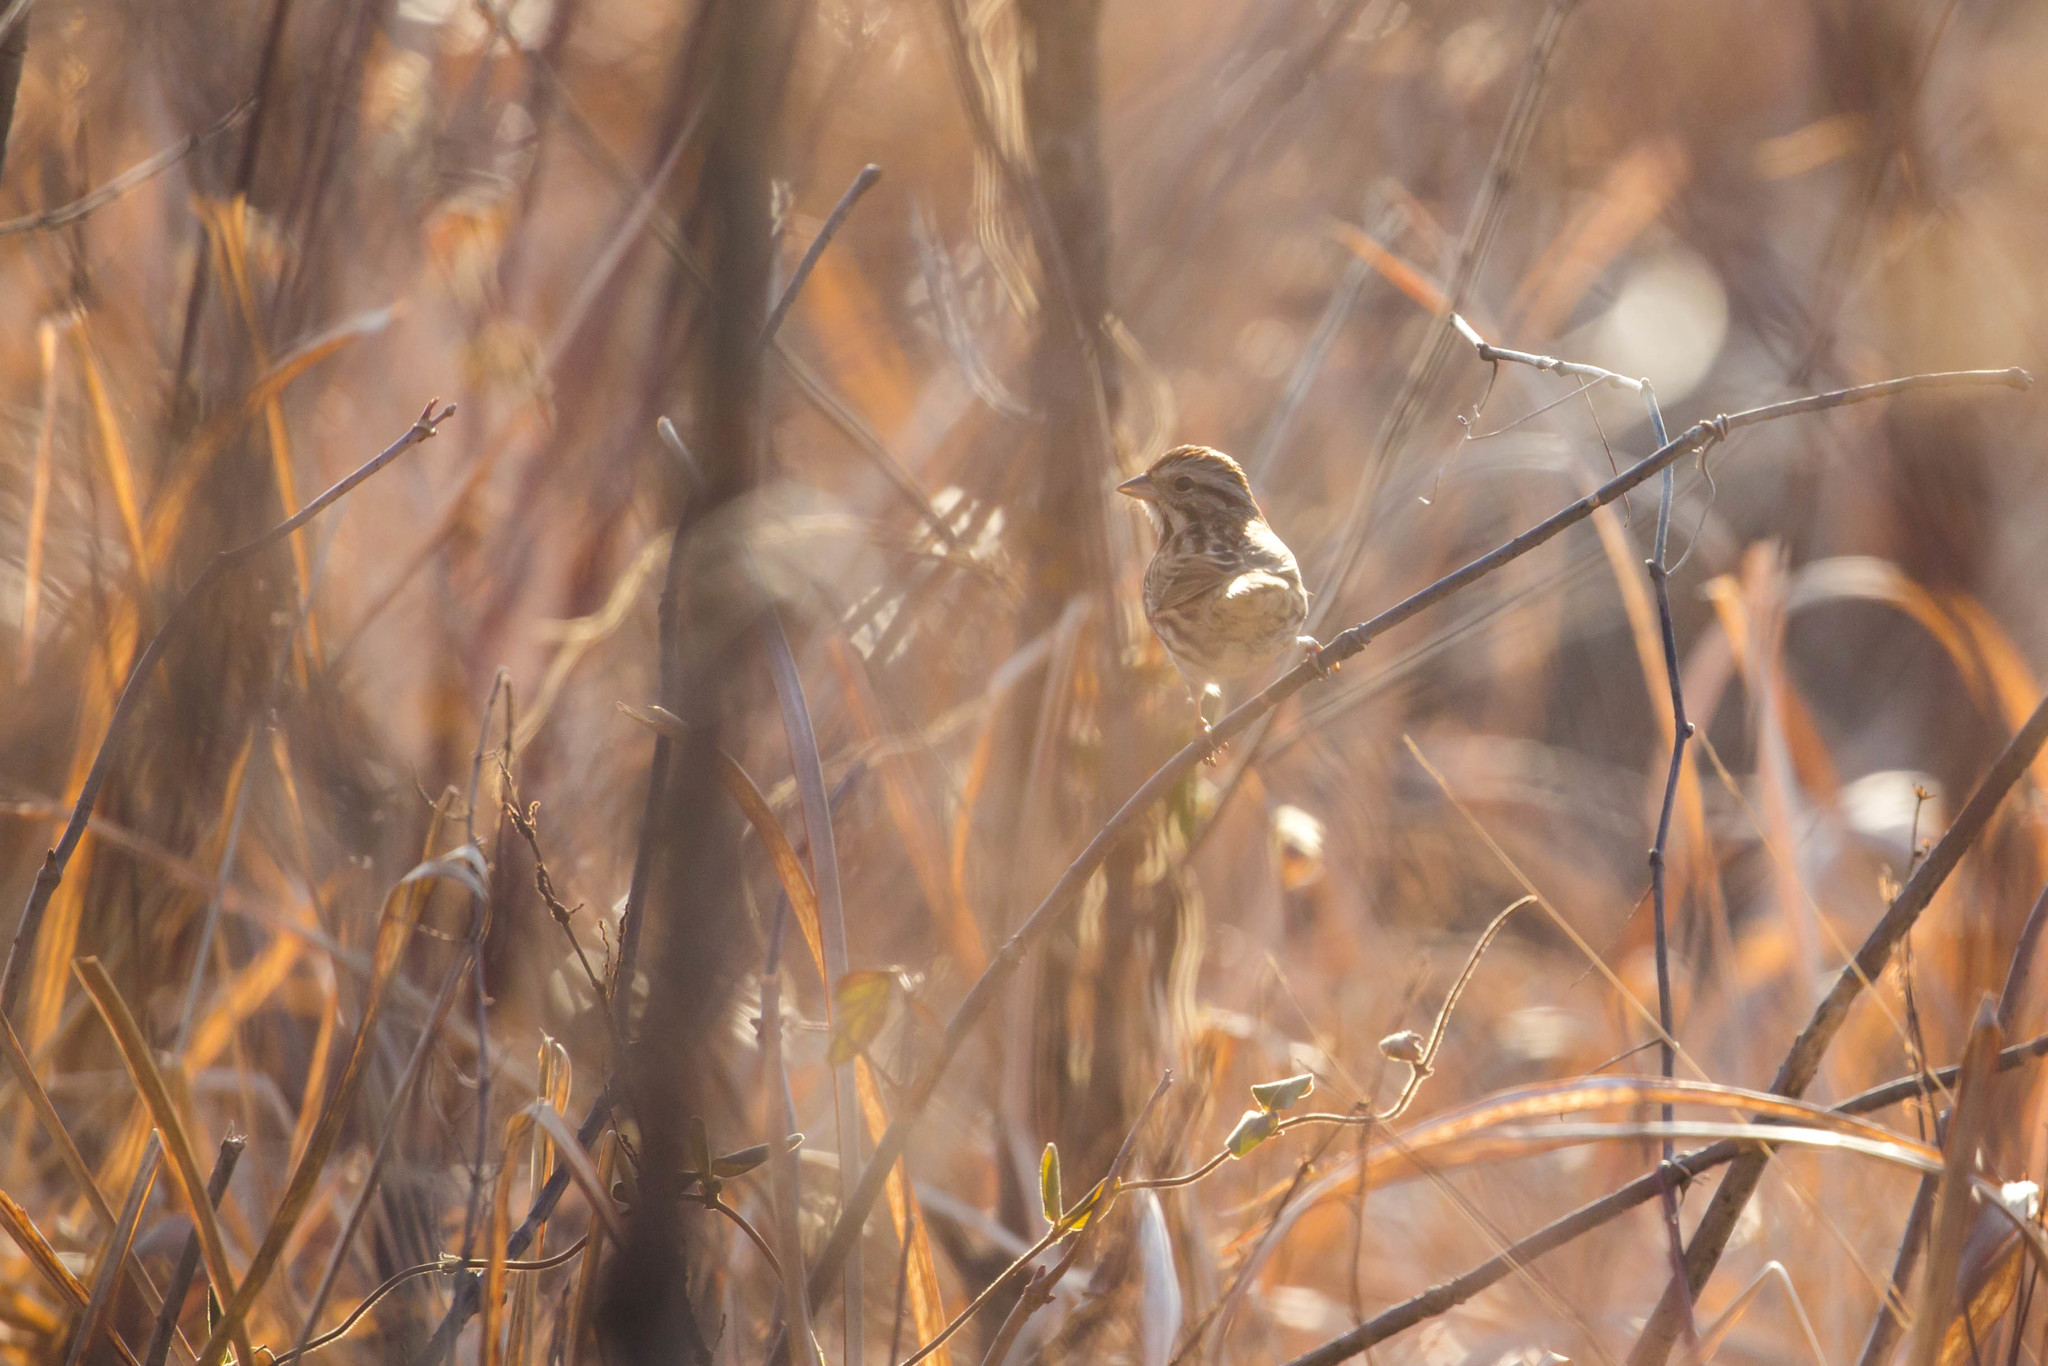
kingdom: Animalia
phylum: Chordata
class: Aves
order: Passeriformes
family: Passerellidae
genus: Melospiza
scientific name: Melospiza melodia
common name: Song sparrow
